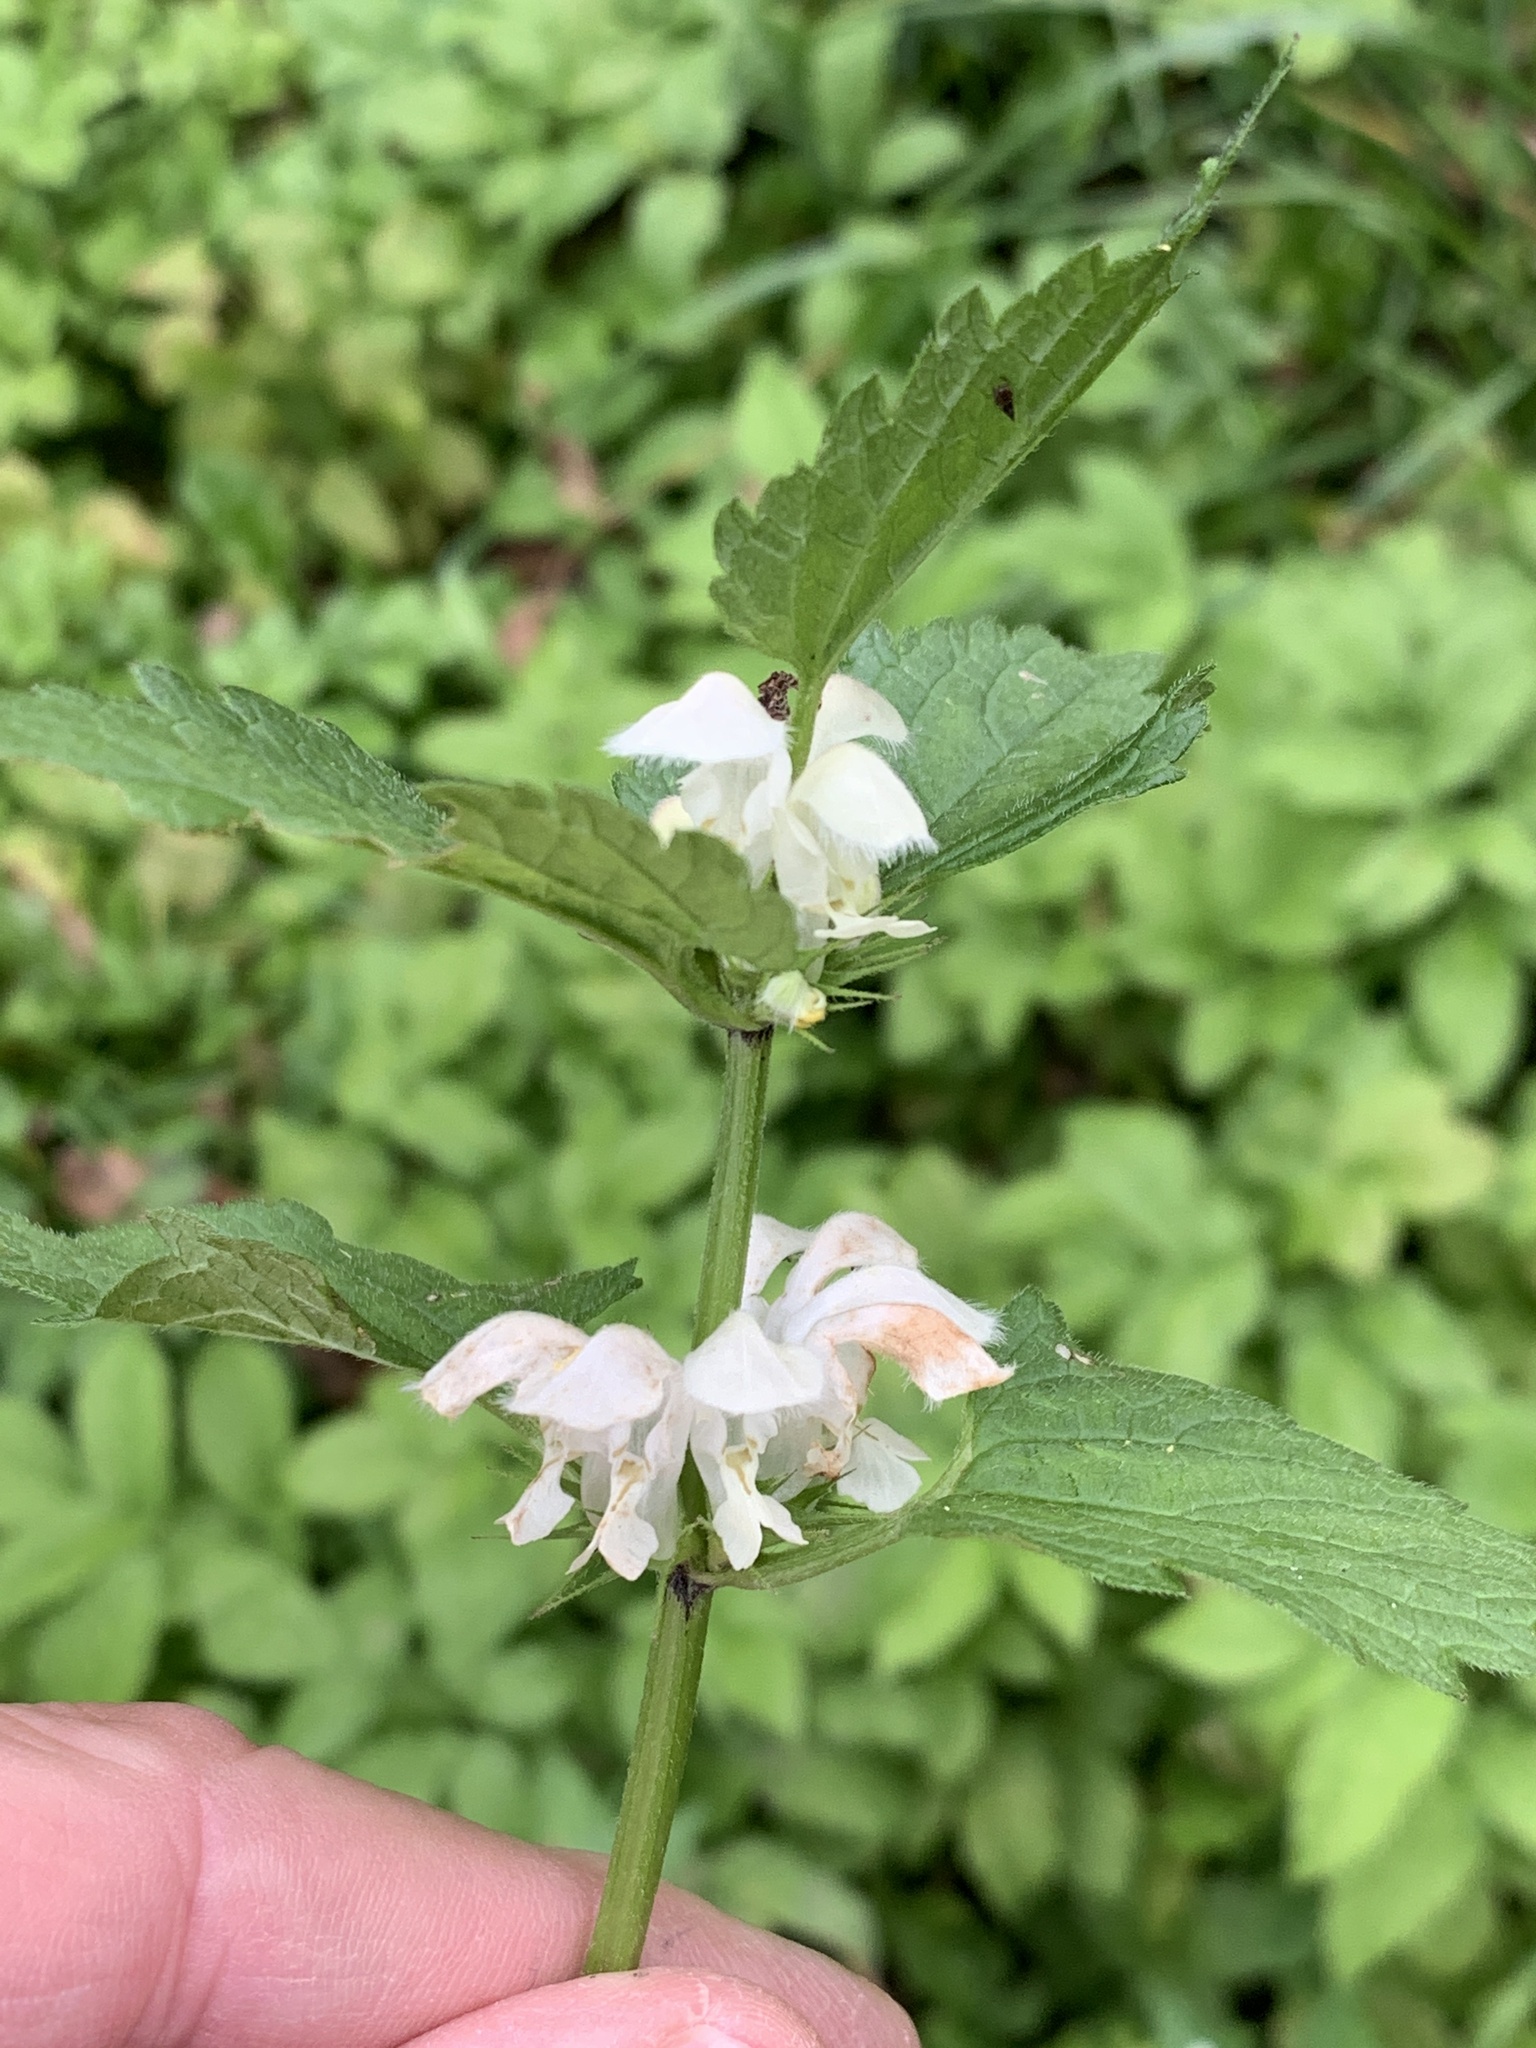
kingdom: Plantae
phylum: Tracheophyta
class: Magnoliopsida
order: Lamiales
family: Lamiaceae
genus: Lamium
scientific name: Lamium album
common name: White dead-nettle
